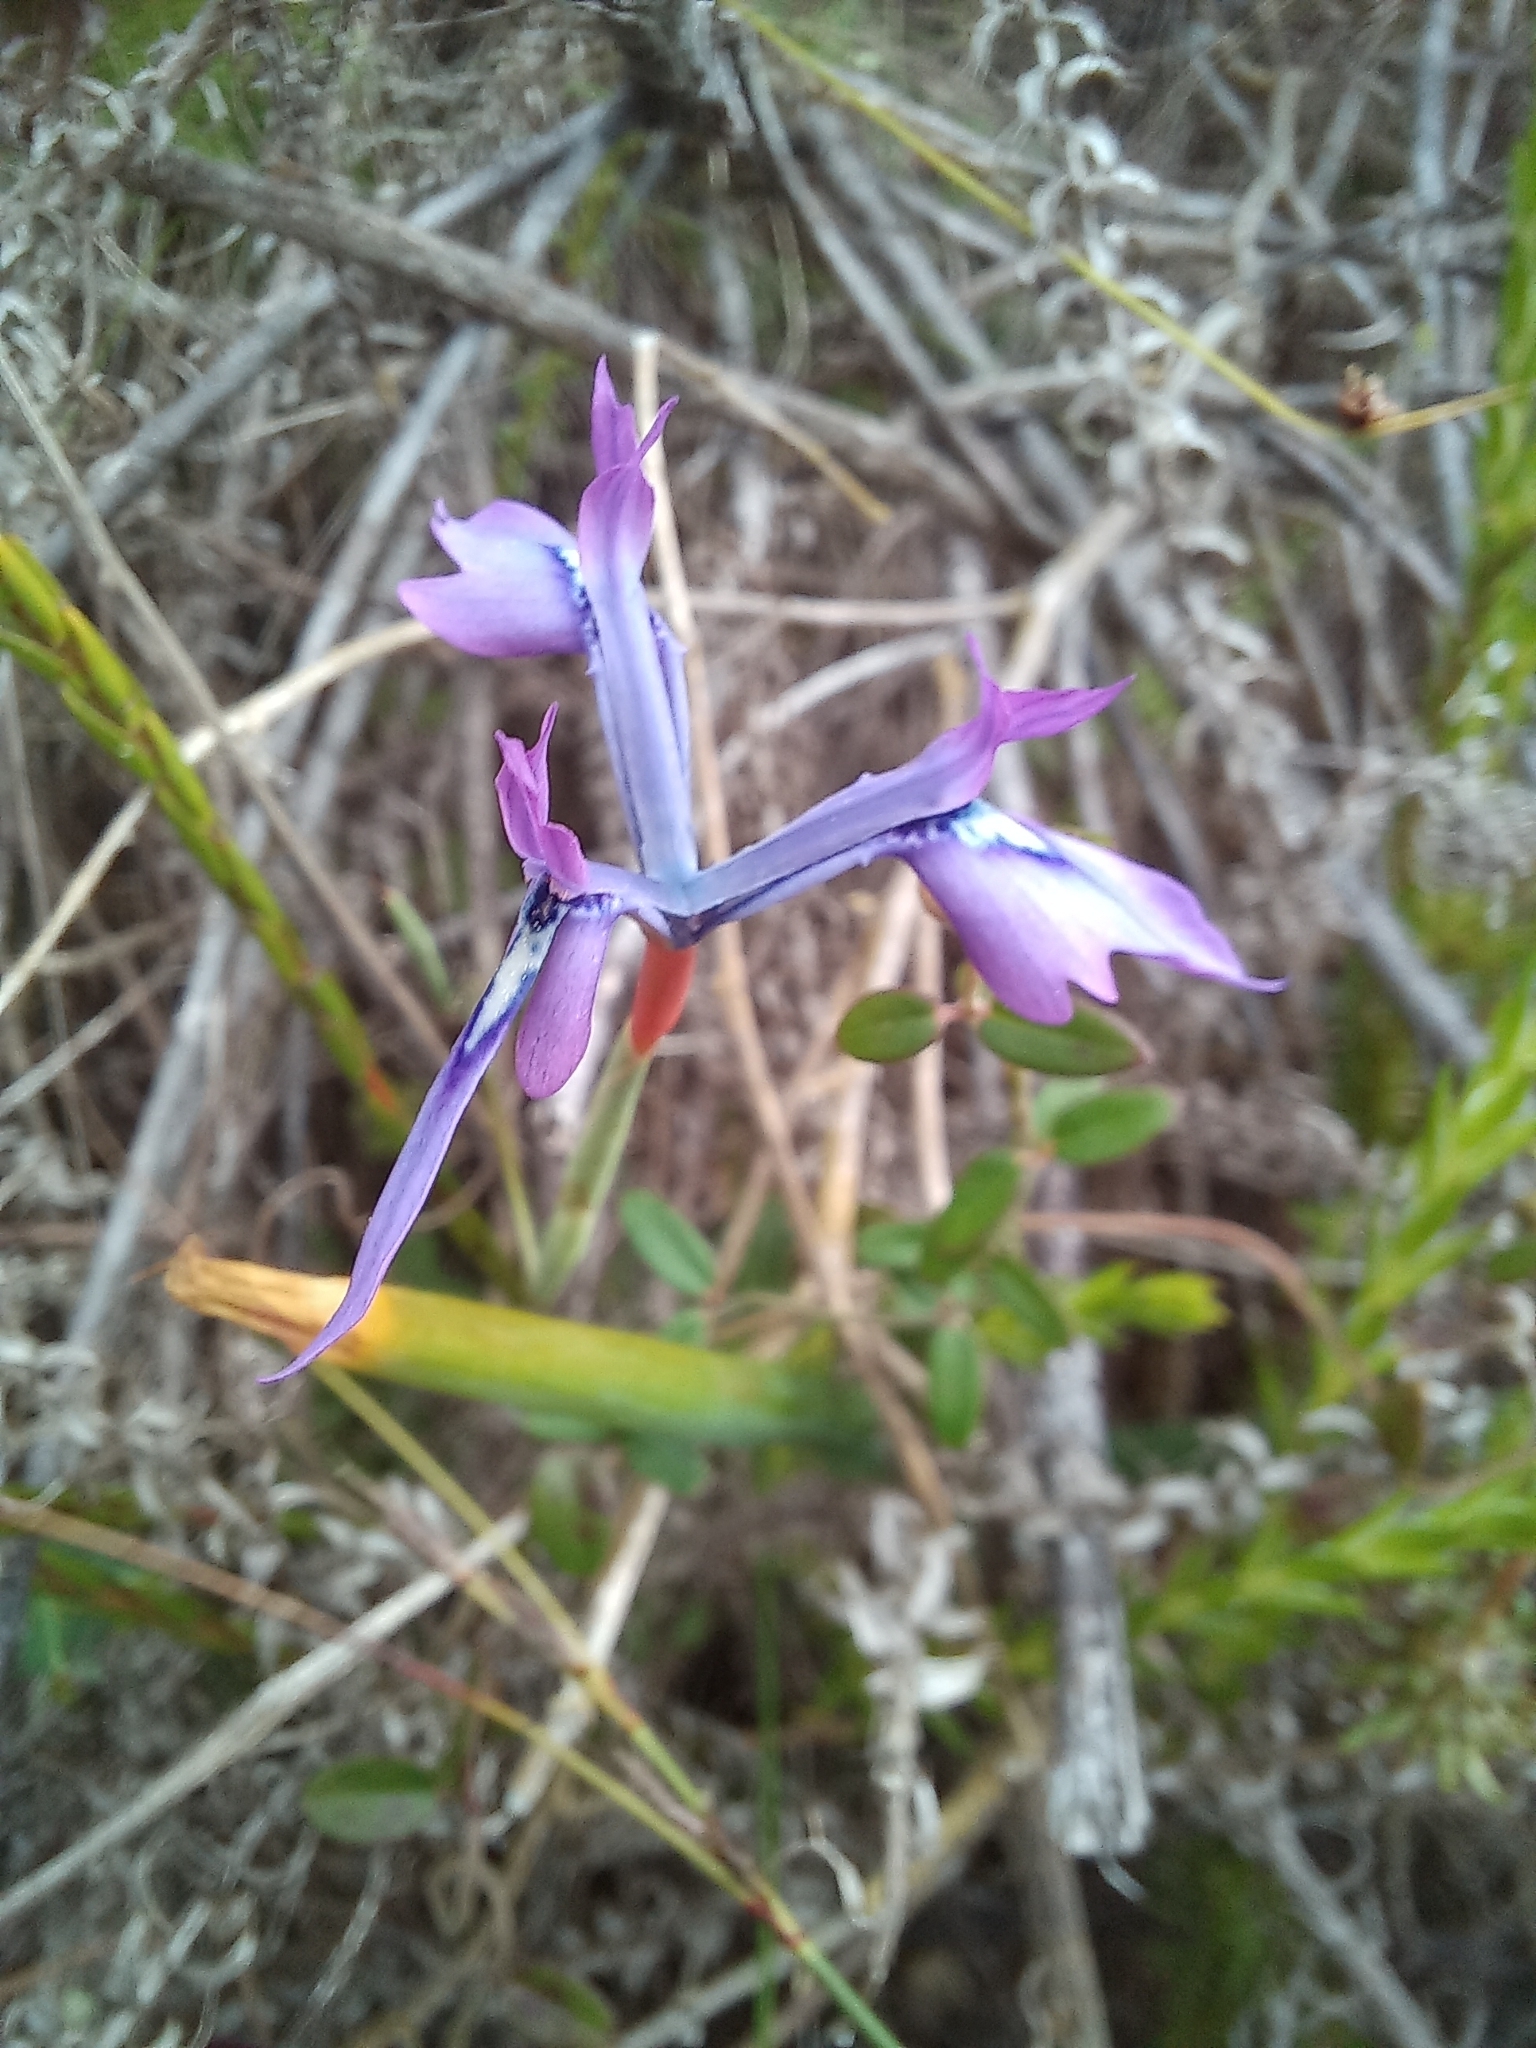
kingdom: Plantae
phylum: Tracheophyta
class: Liliopsida
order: Asparagales
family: Iridaceae
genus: Moraea
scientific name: Moraea tripetala
